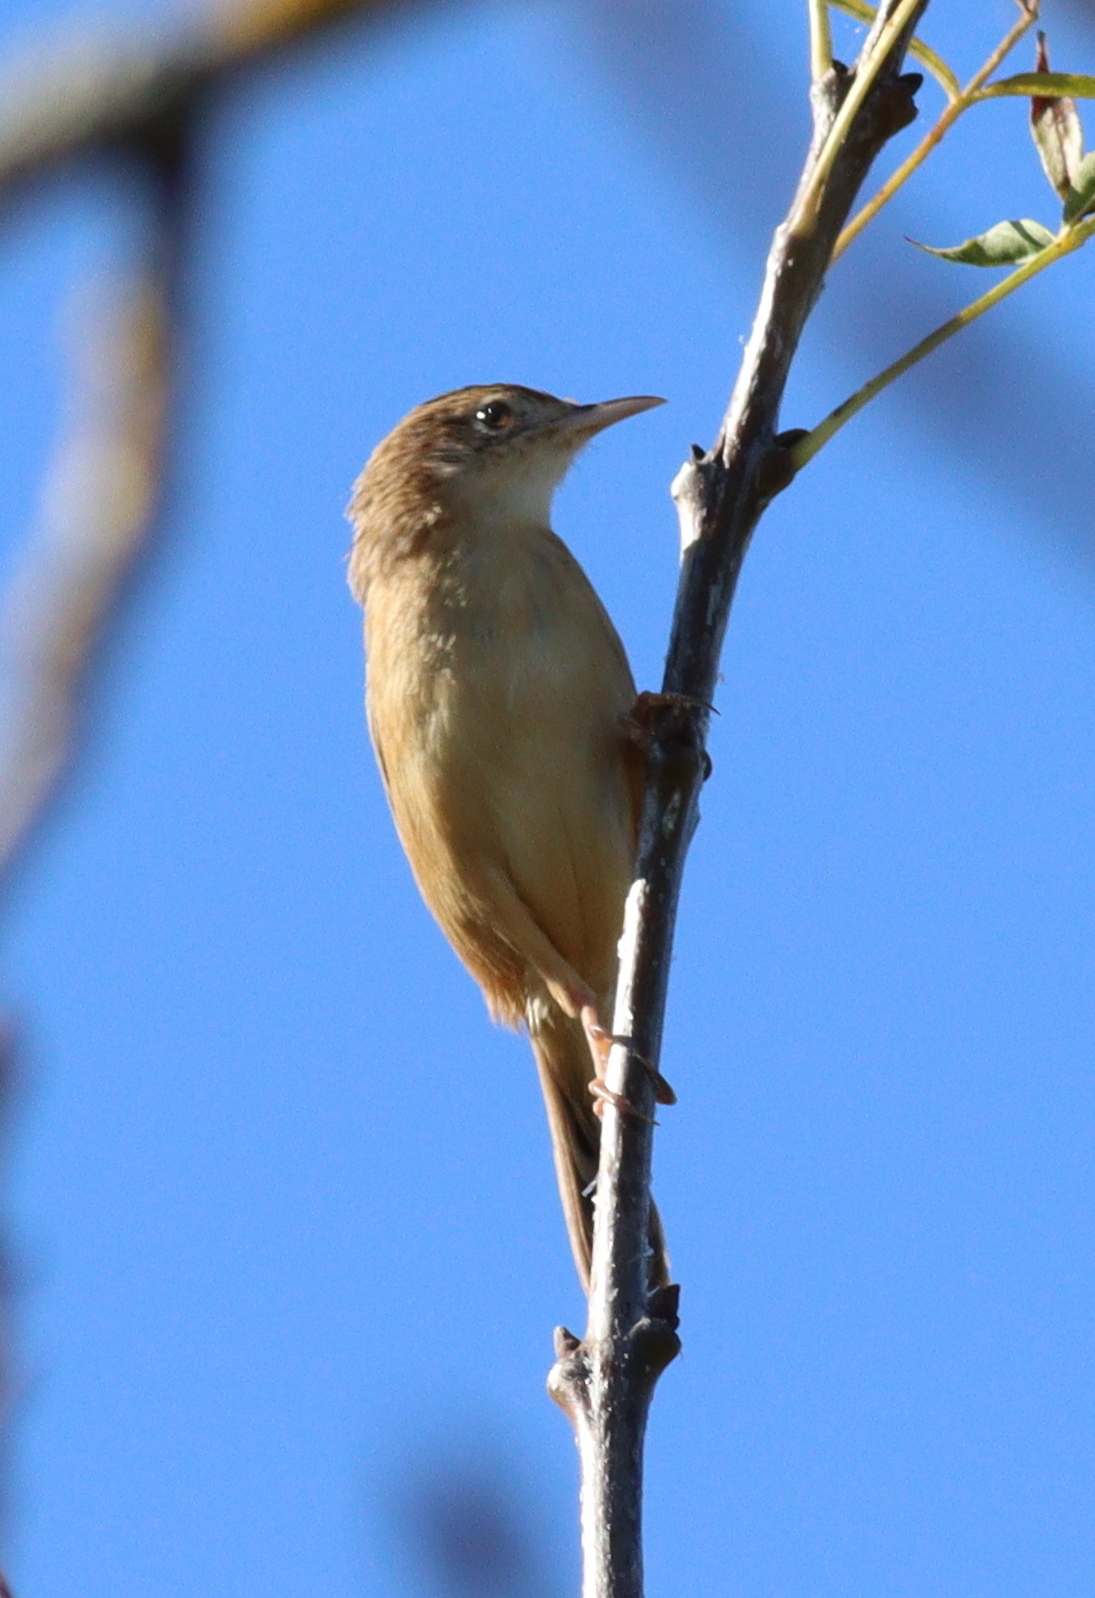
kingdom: Animalia
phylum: Chordata
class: Aves
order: Passeriformes
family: Cisticolidae
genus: Cisticola
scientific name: Cisticola juncidis
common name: Zitting cisticola
